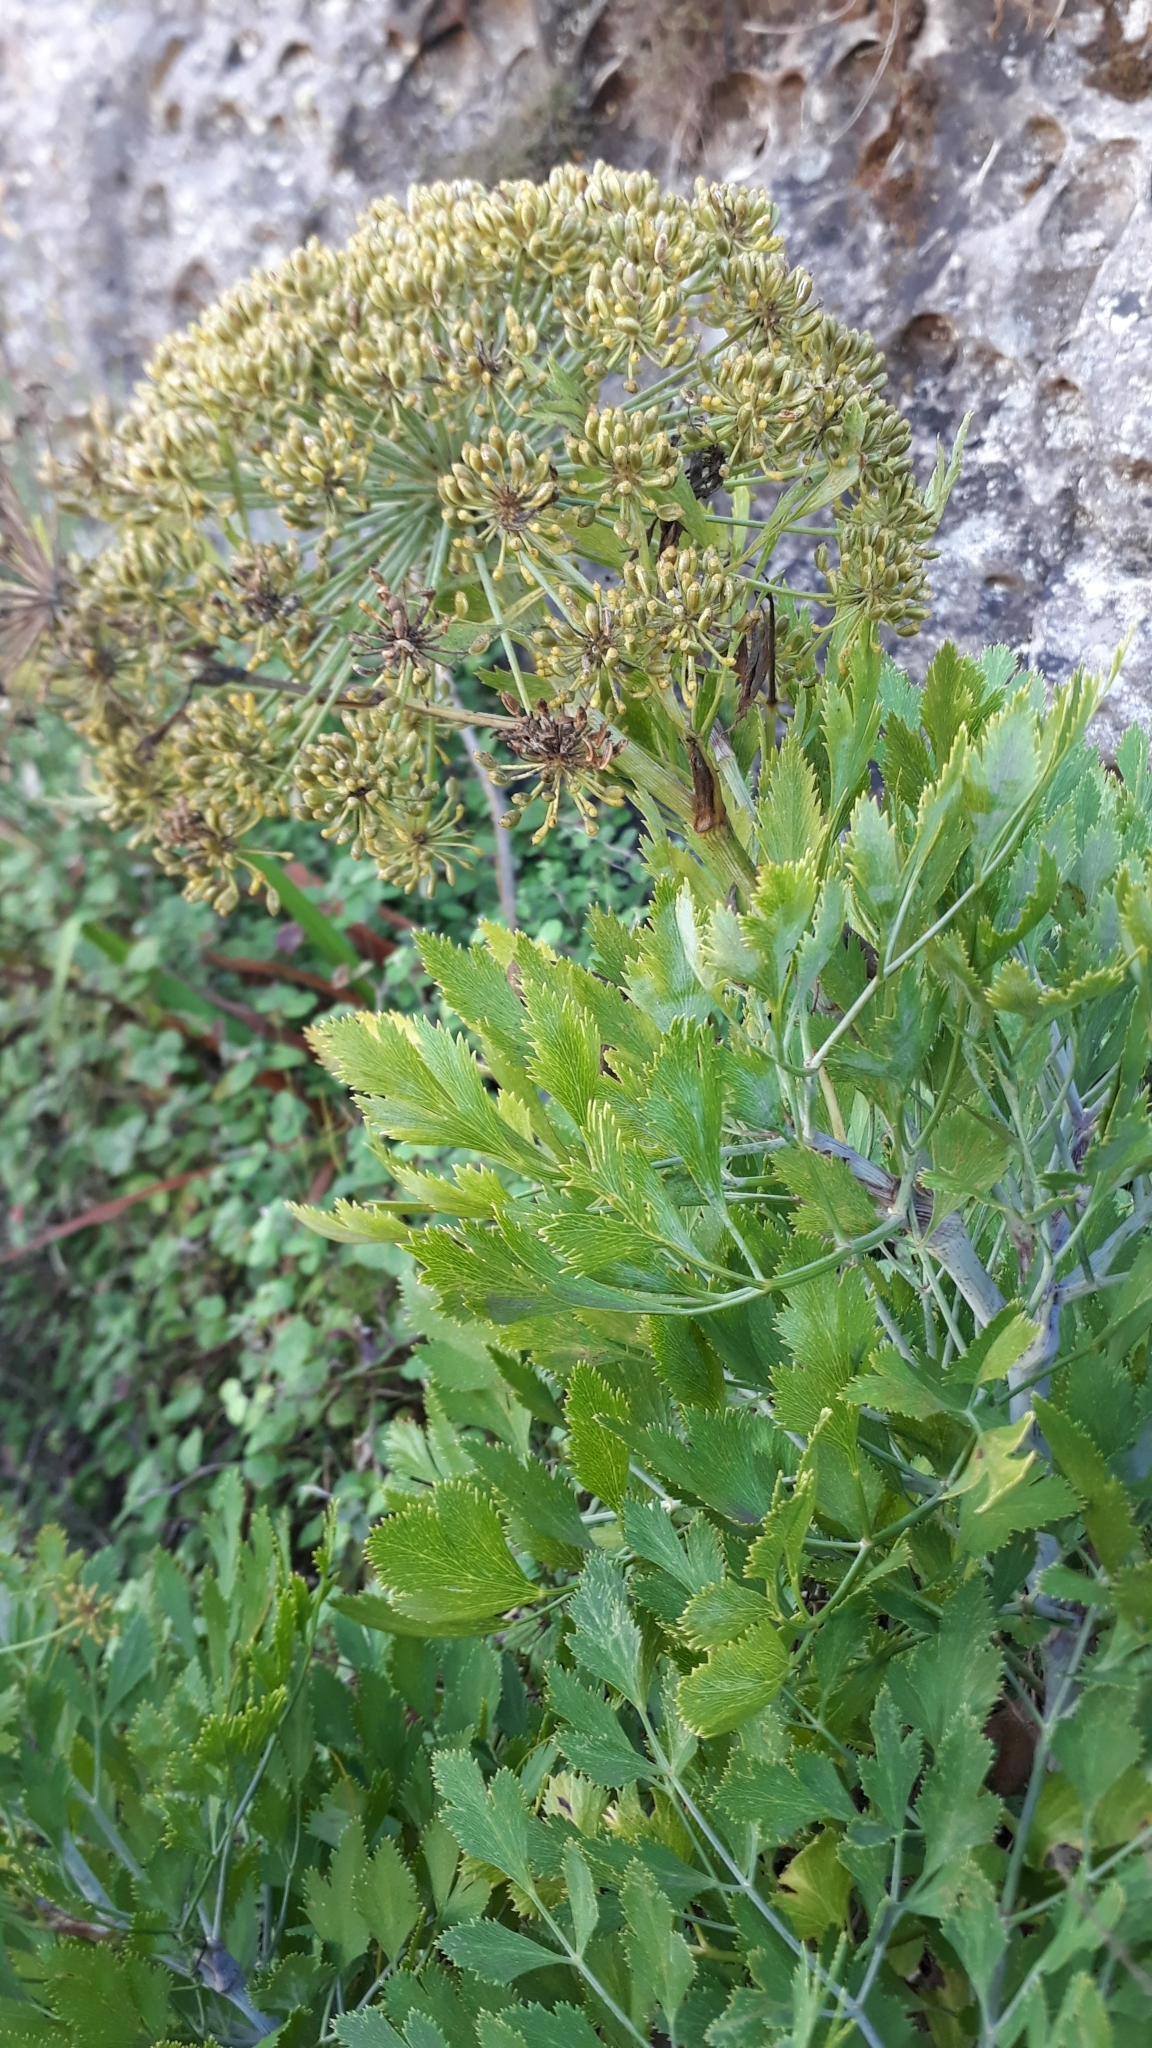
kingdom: Plantae
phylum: Tracheophyta
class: Magnoliopsida
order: Apiales
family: Apiaceae
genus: Notobubon
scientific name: Notobubon galbanum
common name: Blisterbush
